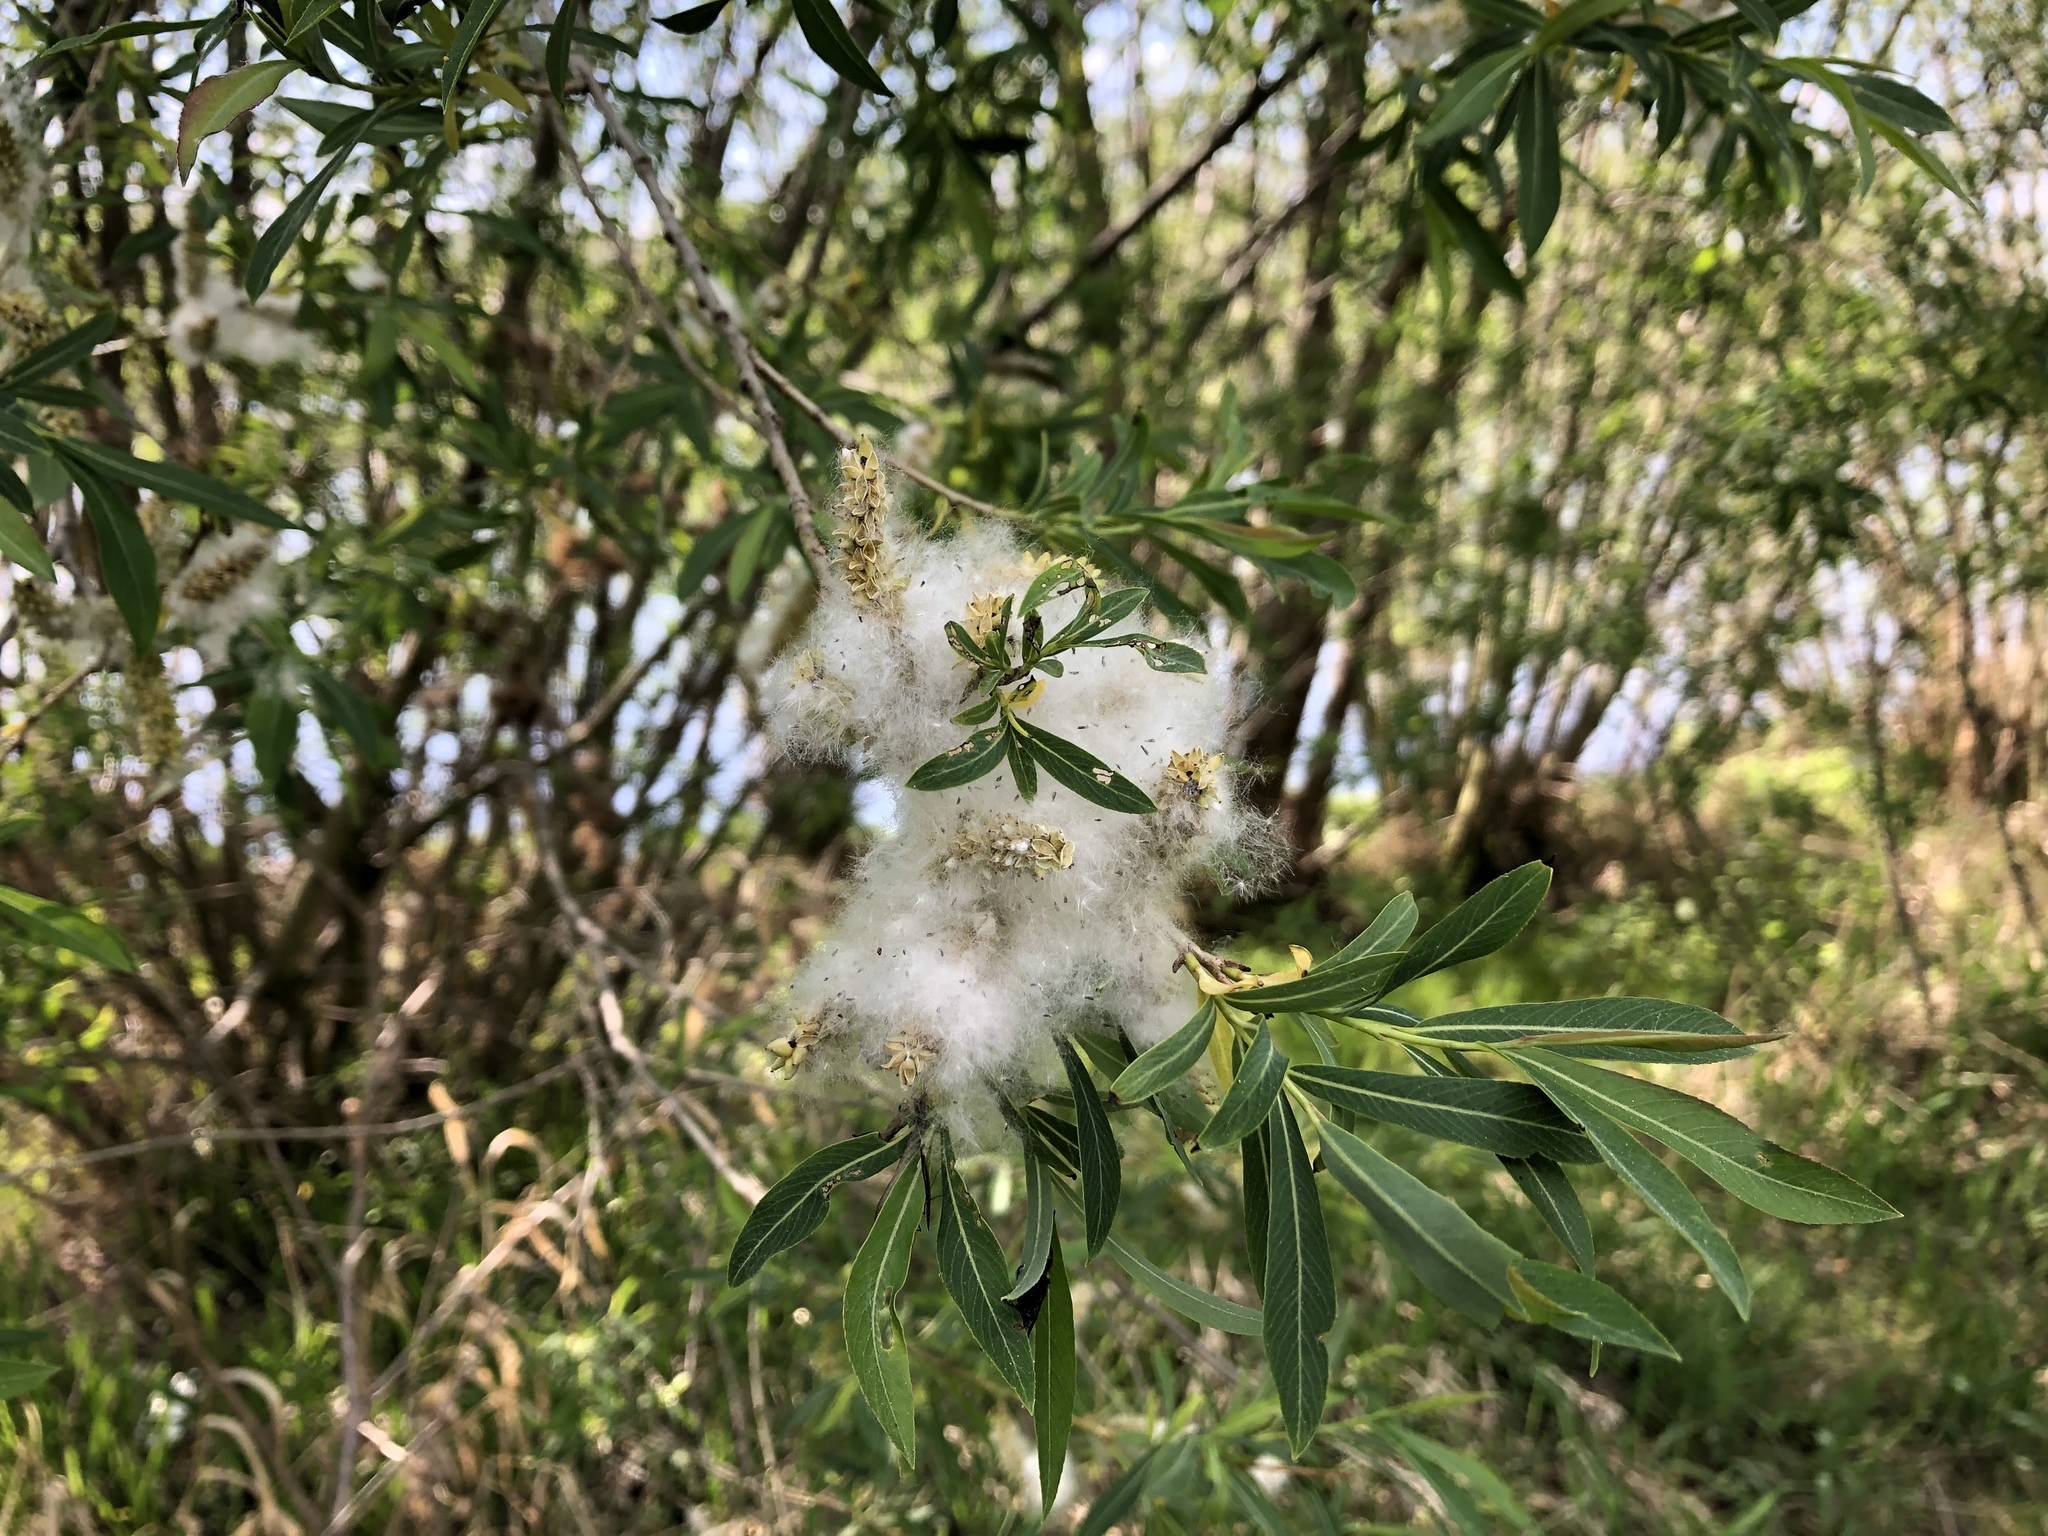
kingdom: Plantae
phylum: Tracheophyta
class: Magnoliopsida
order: Malpighiales
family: Salicaceae
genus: Salix
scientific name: Salix purpurea
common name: Purple willow
